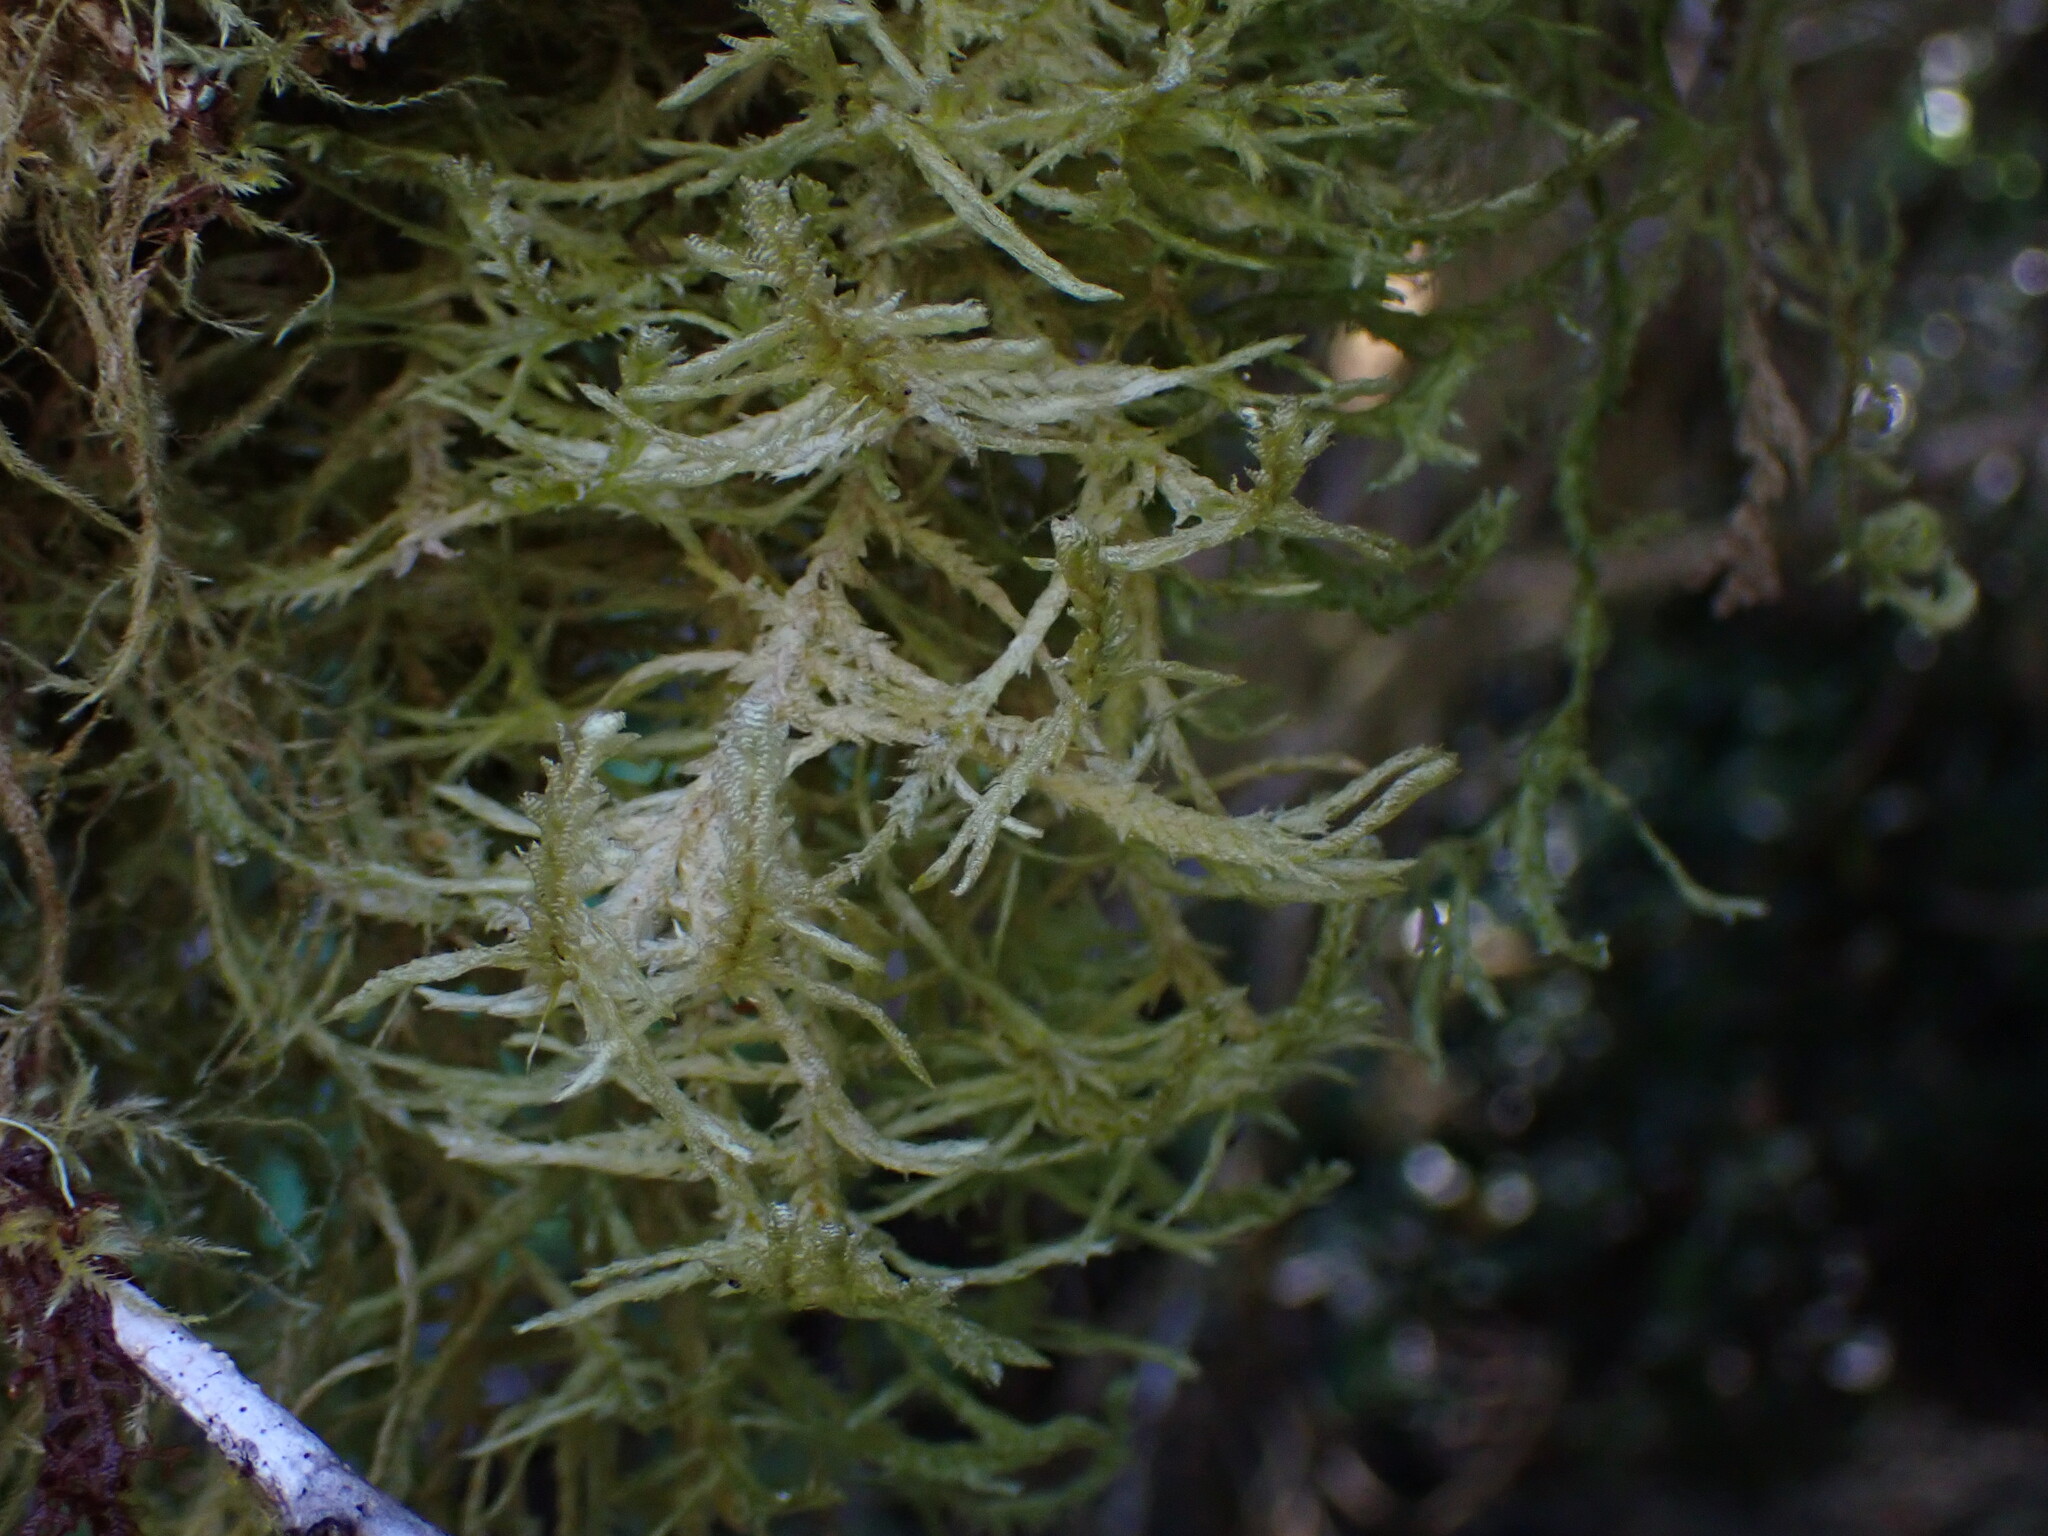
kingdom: Plantae
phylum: Bryophyta
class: Bryopsida
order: Hypnales
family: Neckeraceae
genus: Neckera
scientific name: Neckera douglasii
